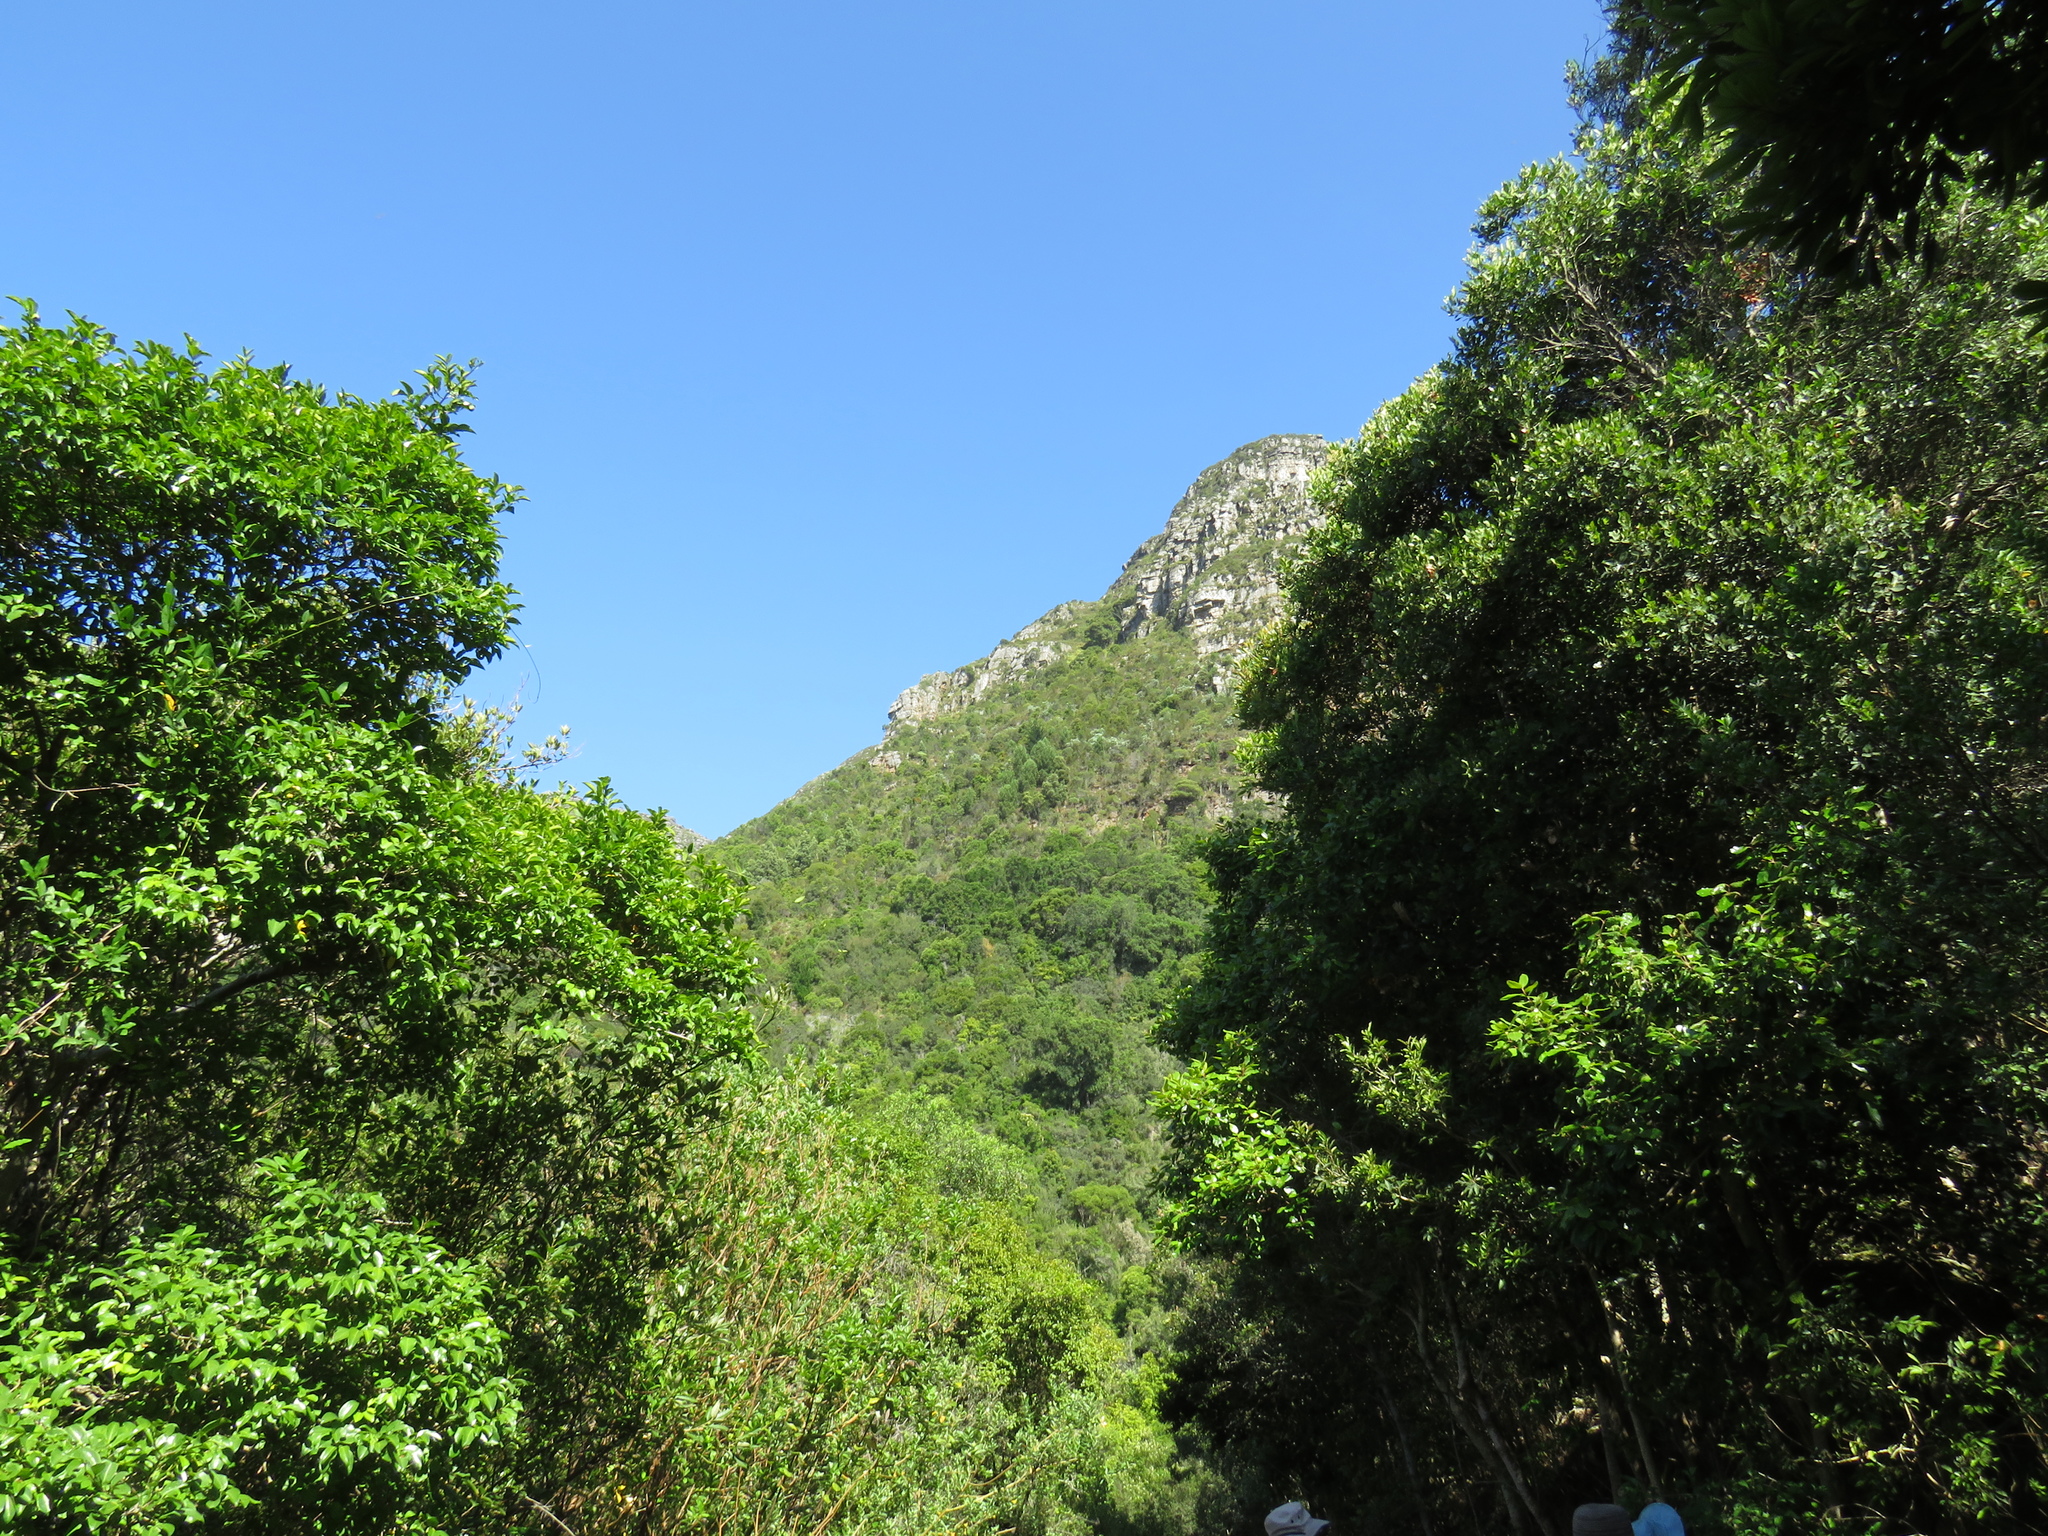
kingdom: Plantae
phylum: Tracheophyta
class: Pinopsida
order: Pinales
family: Pinaceae
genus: Pinus
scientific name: Pinus pinaster
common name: Maritime pine
